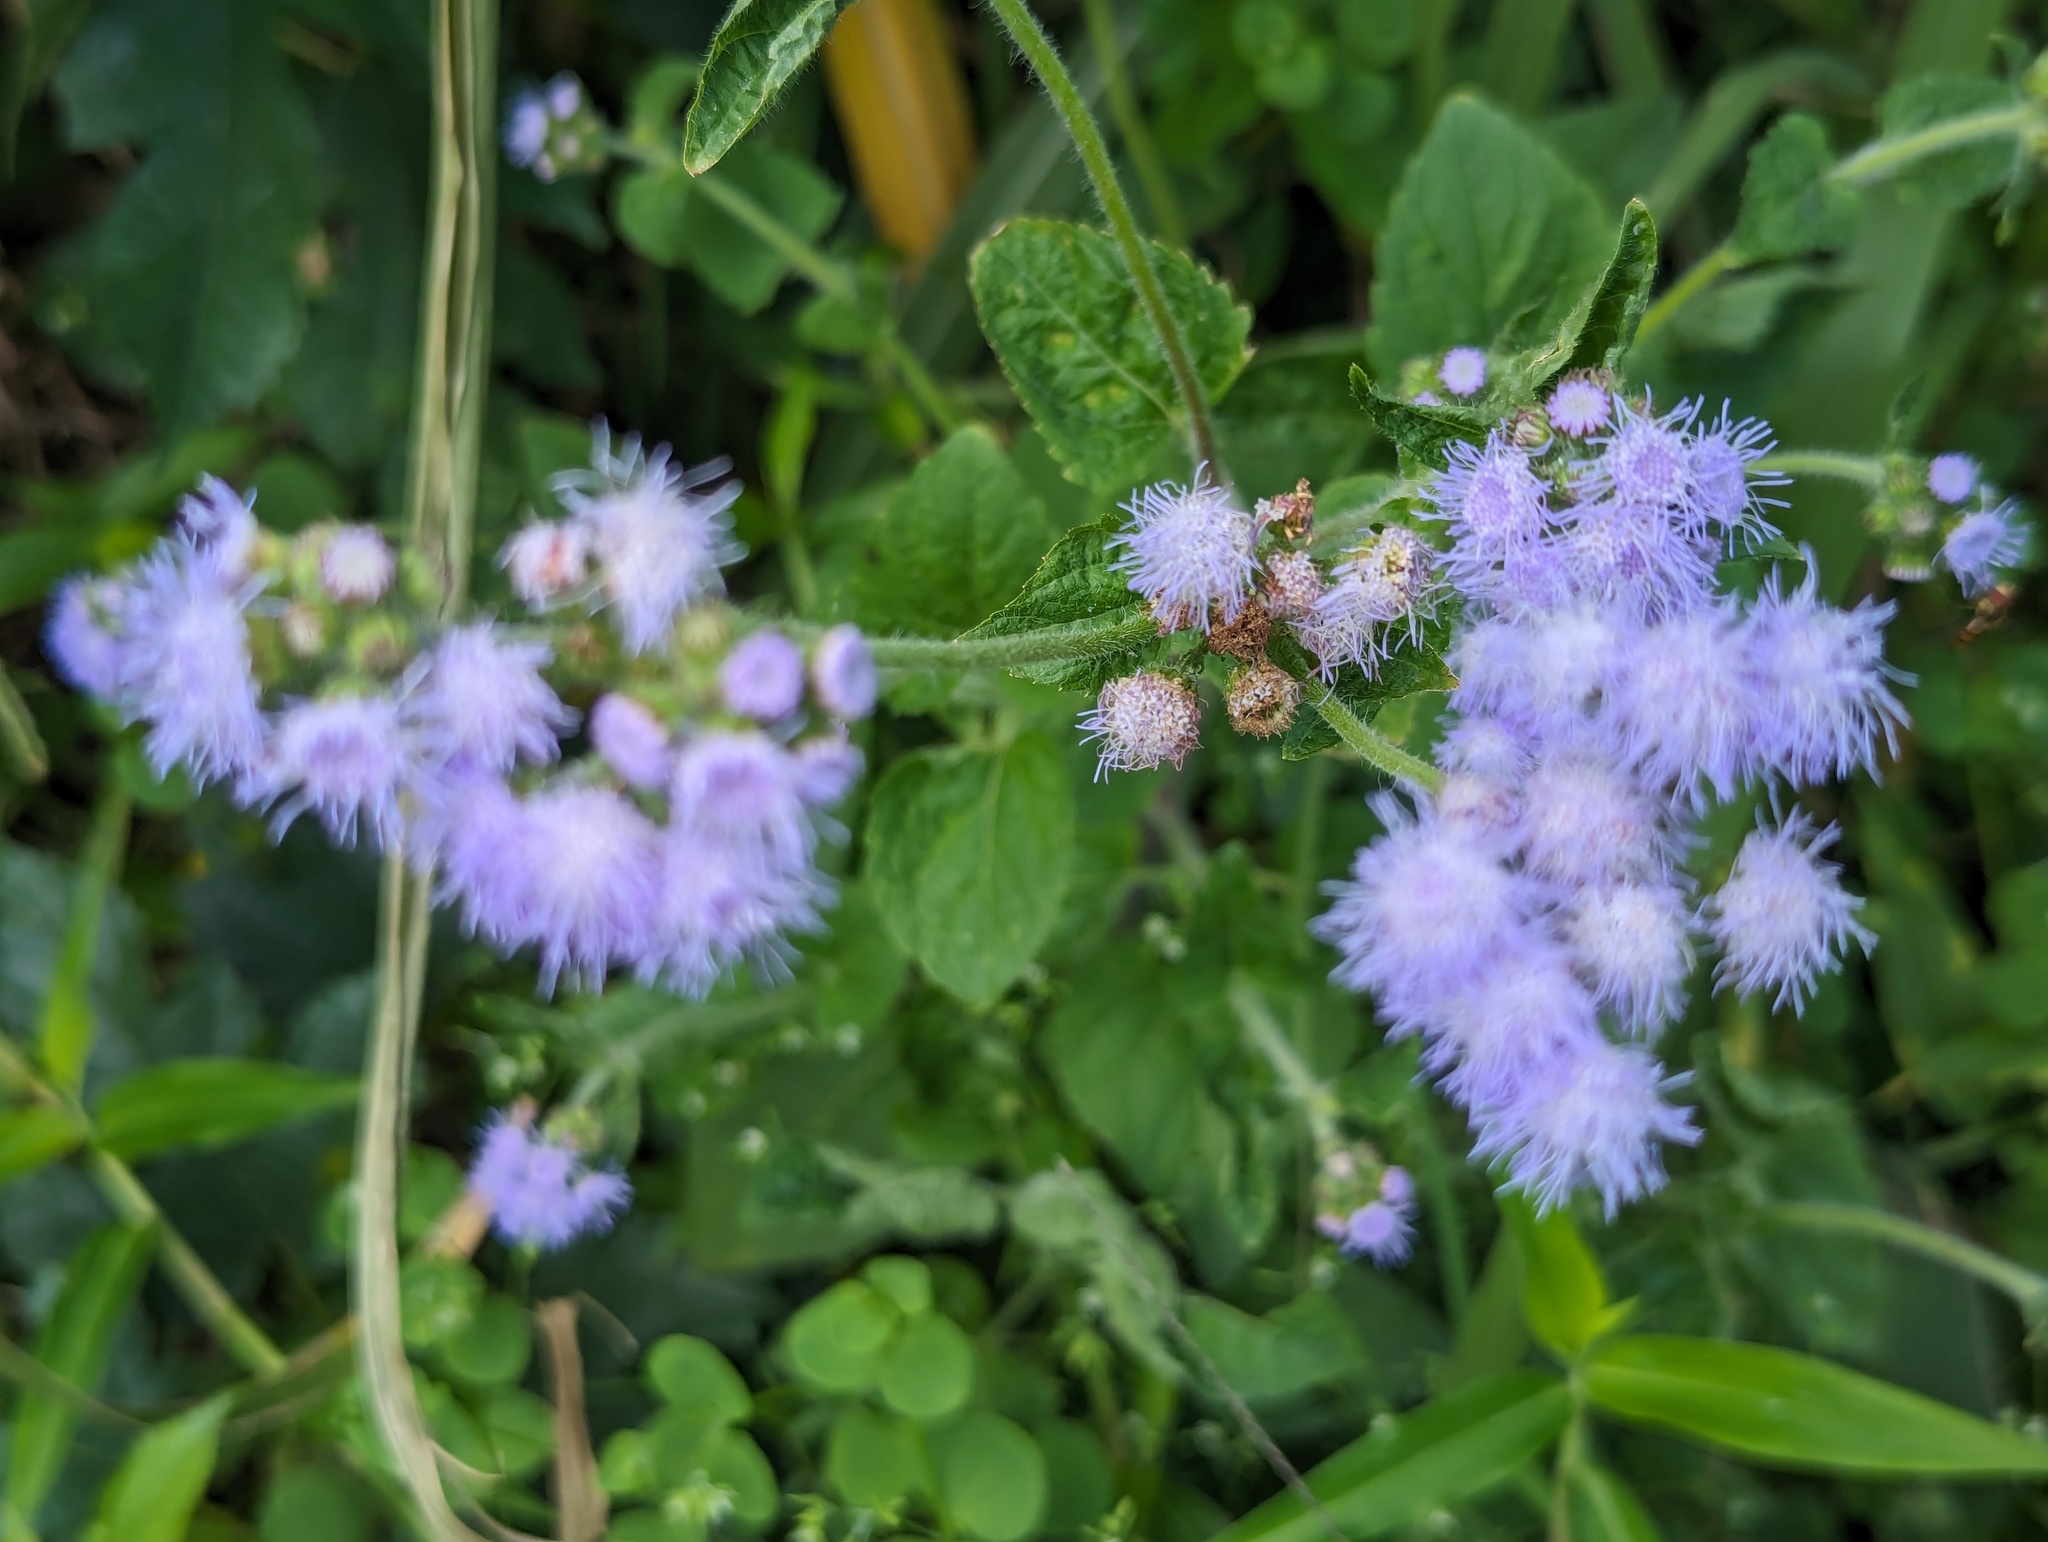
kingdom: Plantae
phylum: Tracheophyta
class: Magnoliopsida
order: Asterales
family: Asteraceae
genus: Ageratum
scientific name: Ageratum houstonianum
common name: Bluemink
